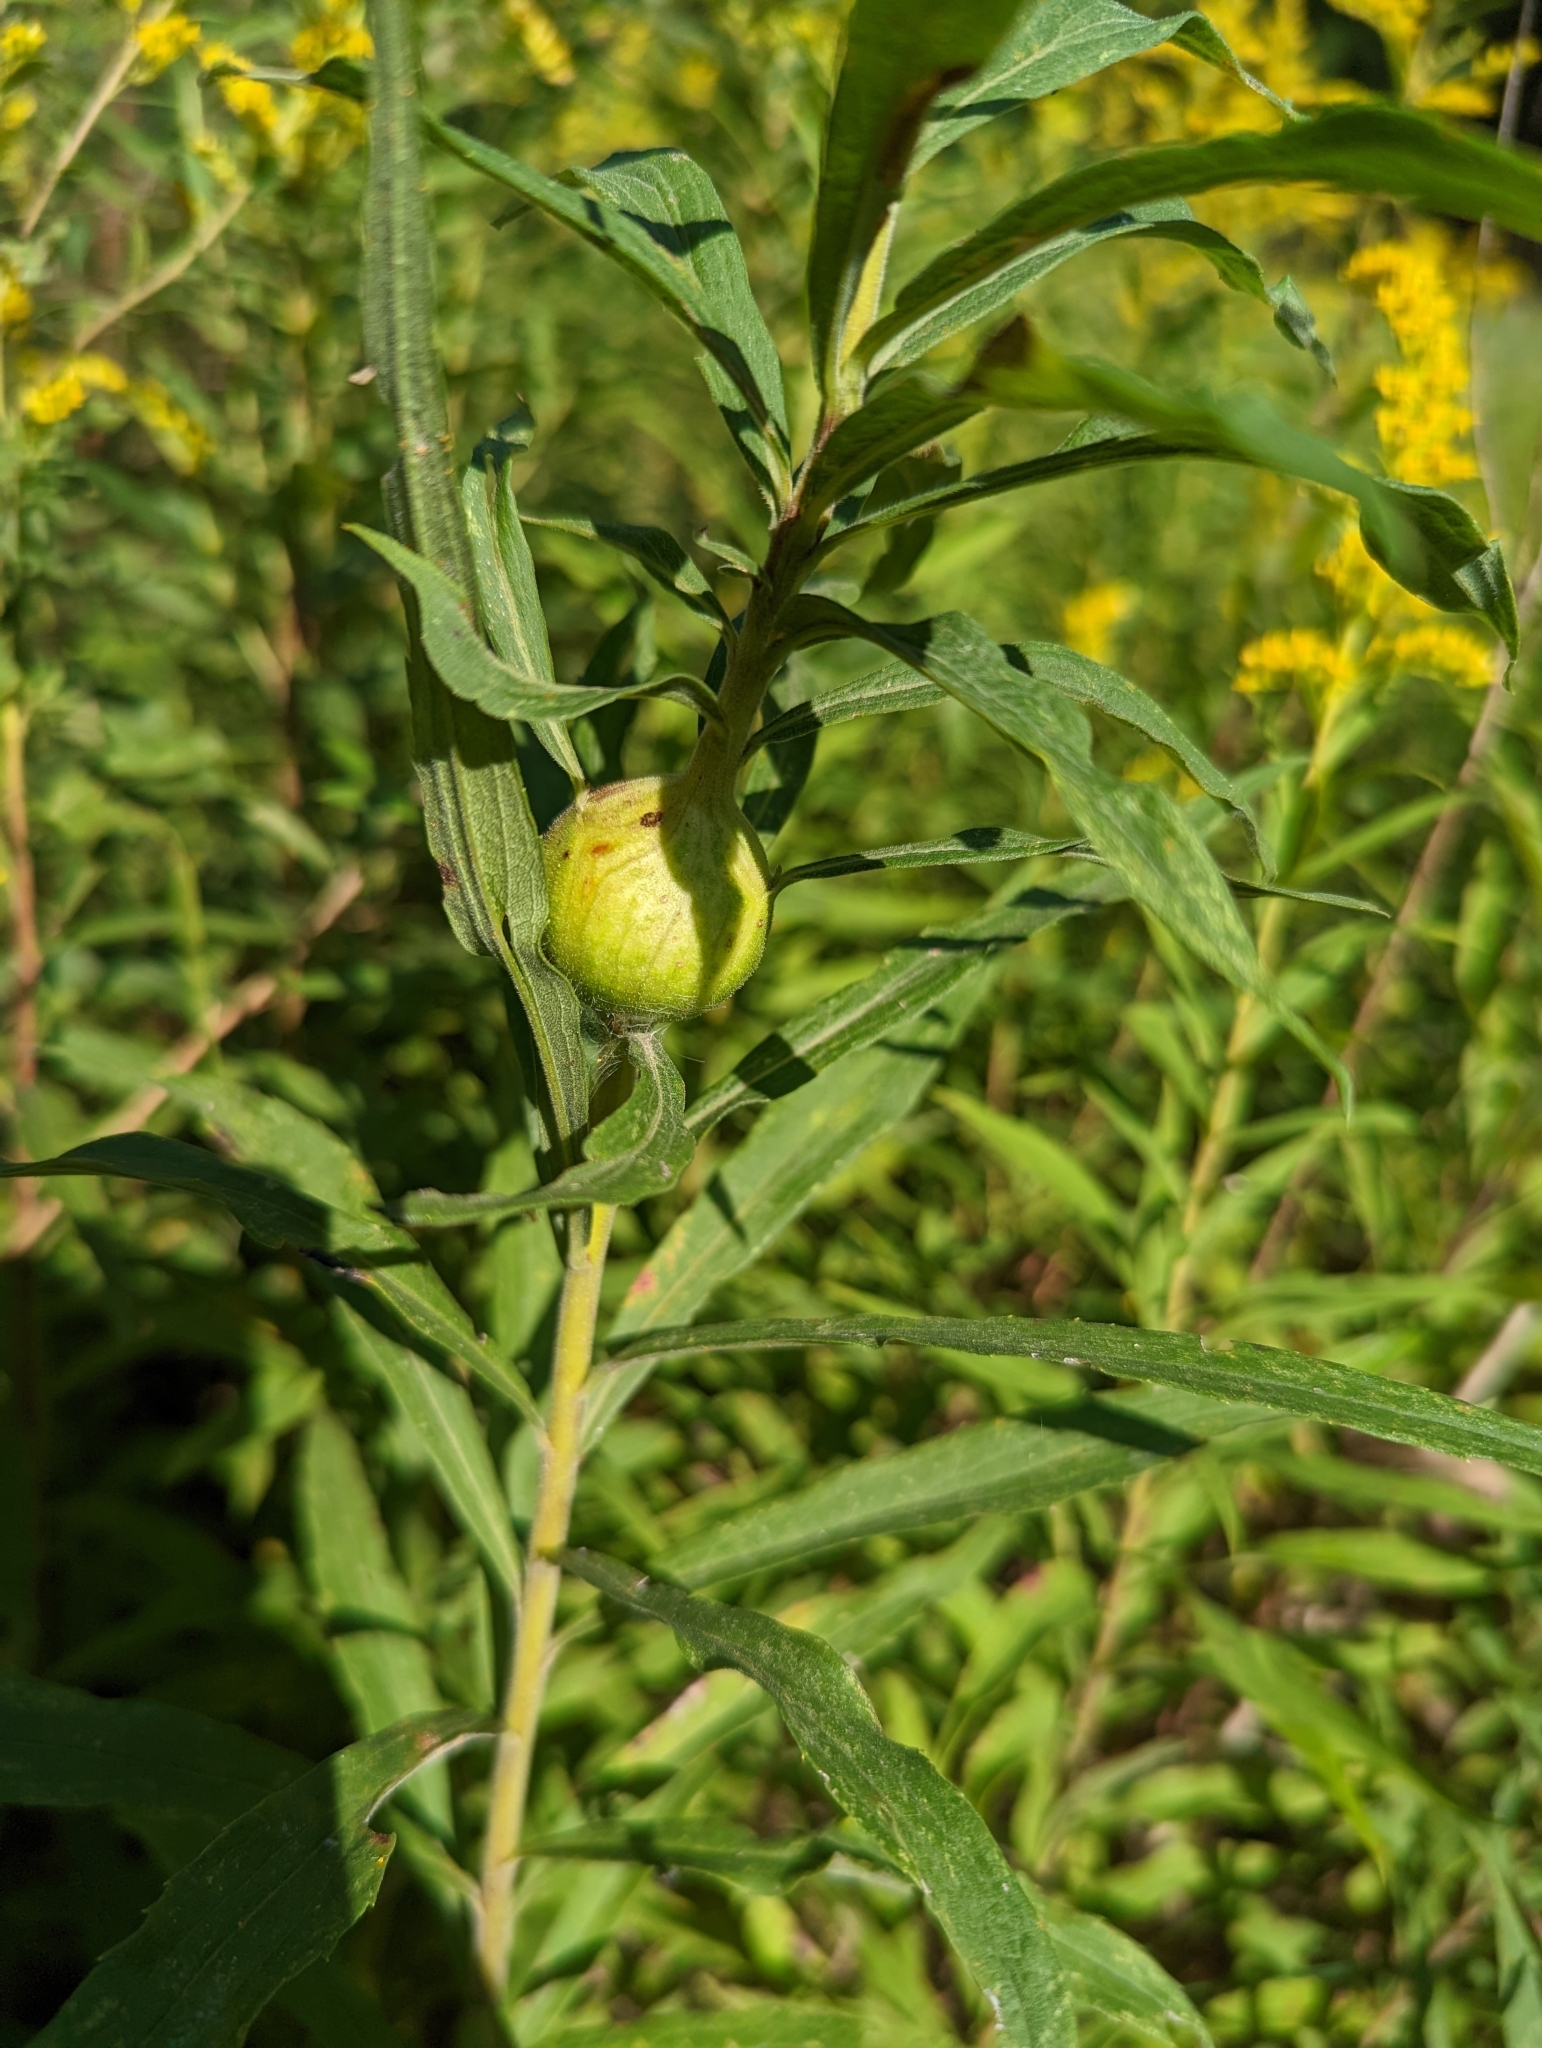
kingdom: Animalia
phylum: Arthropoda
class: Insecta
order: Diptera
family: Tephritidae
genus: Eurosta
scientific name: Eurosta solidaginis
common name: Goldenrod gall fly
